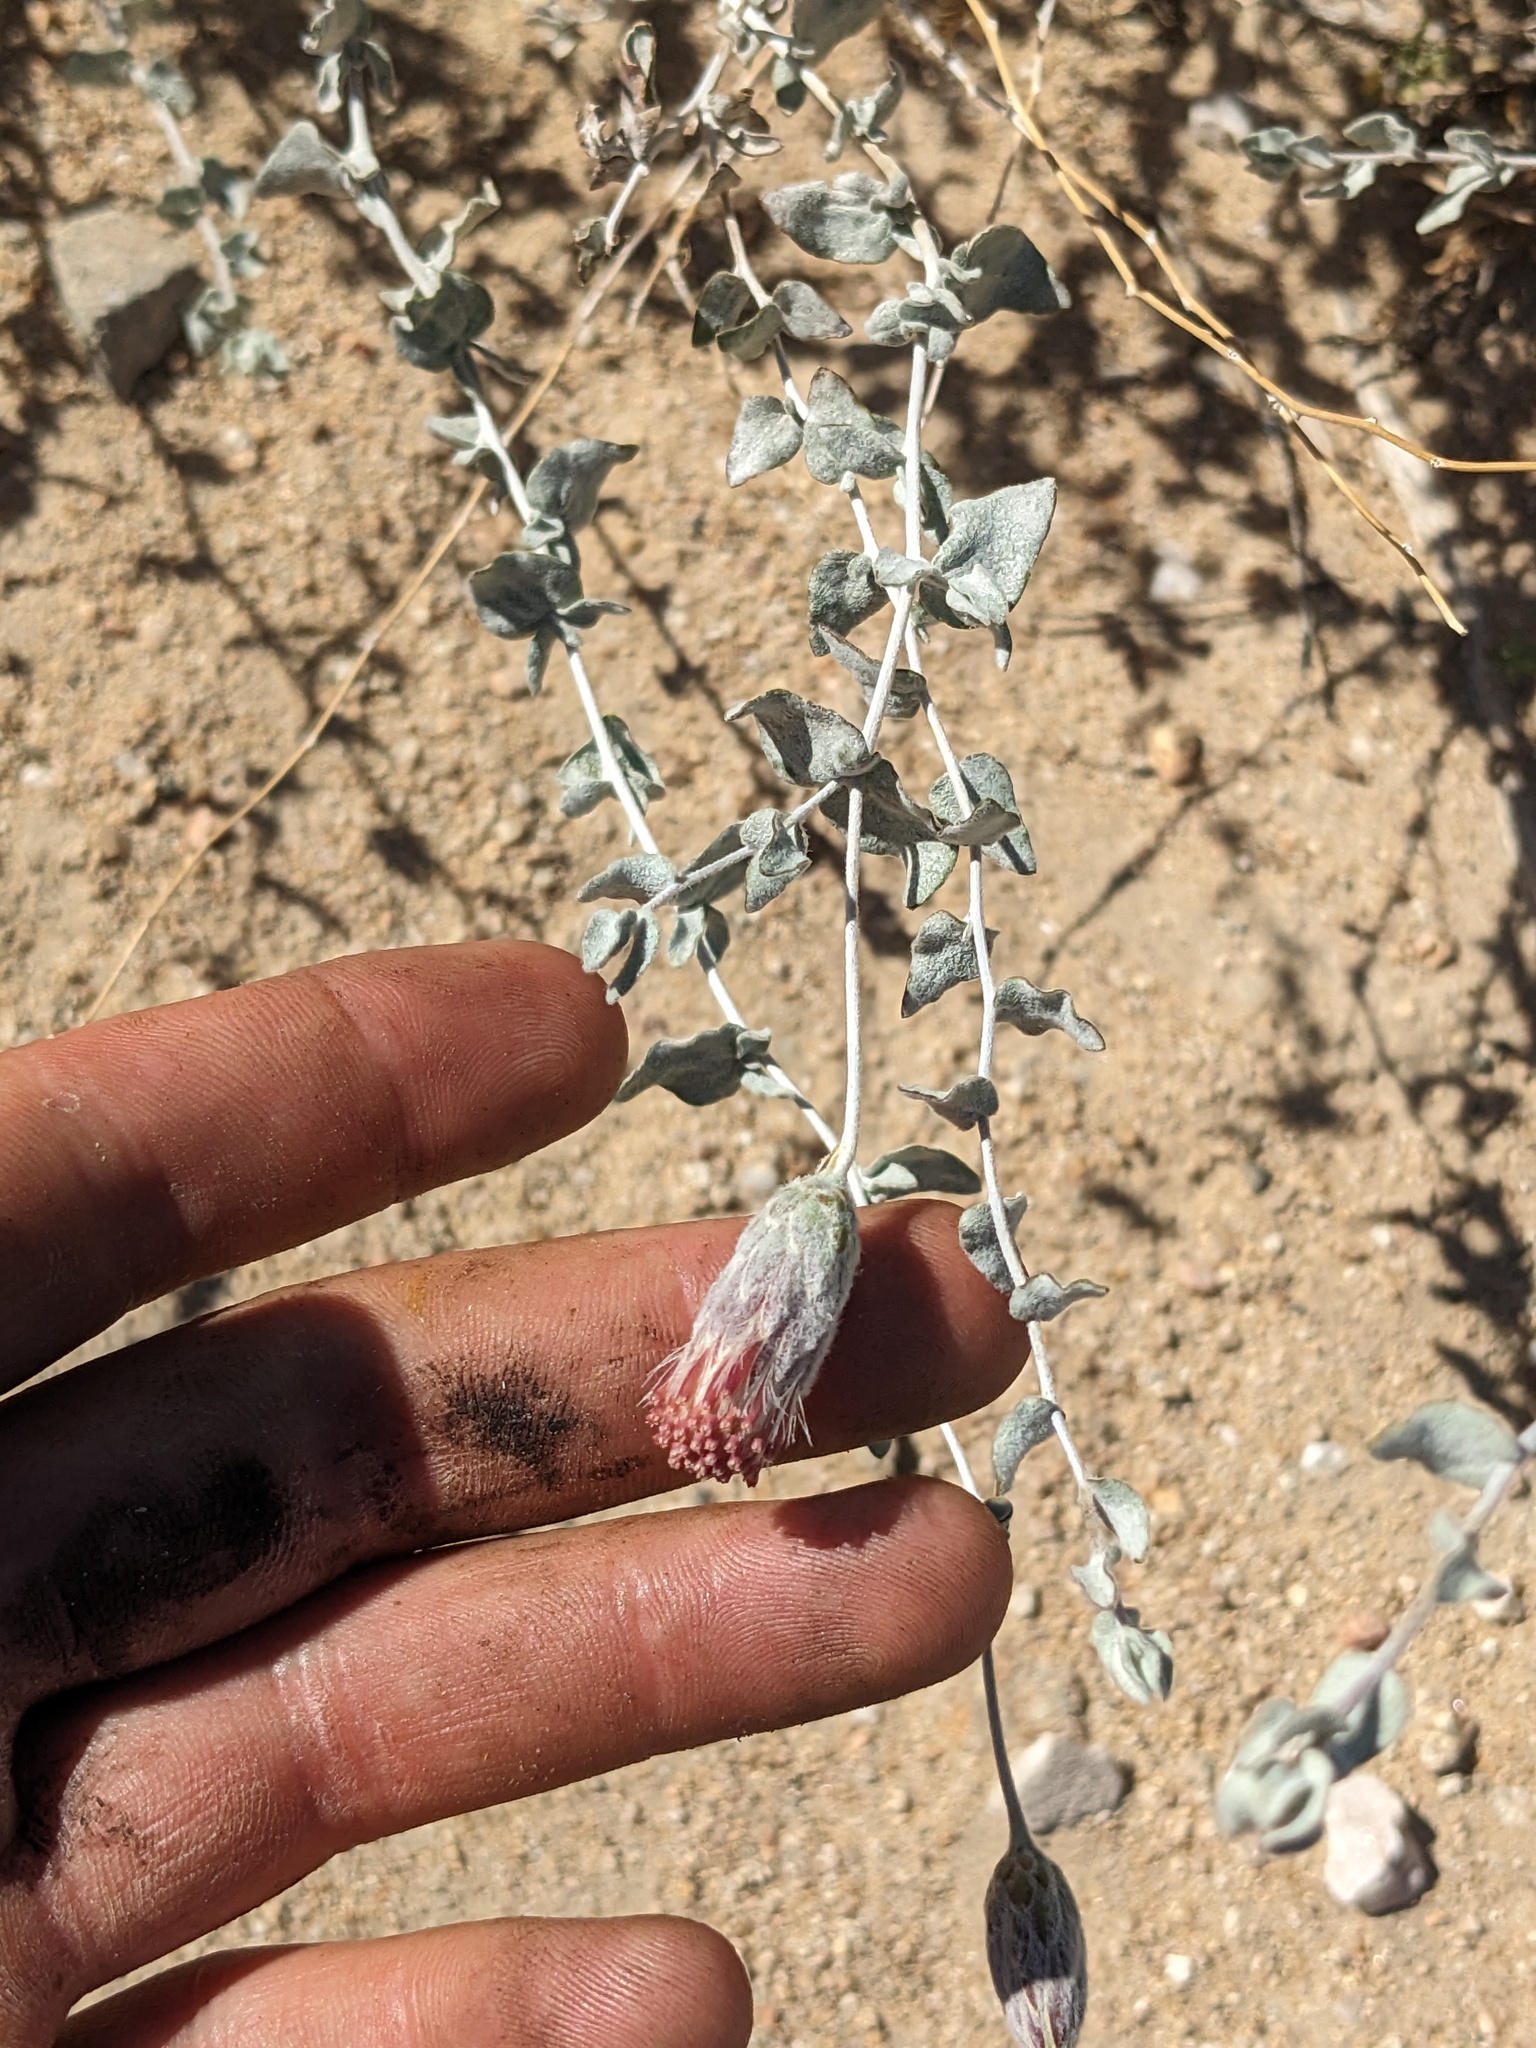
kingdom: Plantae
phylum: Tracheophyta
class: Magnoliopsida
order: Asterales
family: Asteraceae
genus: Brickellia
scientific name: Brickellia incana
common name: Woolly brickelbush
